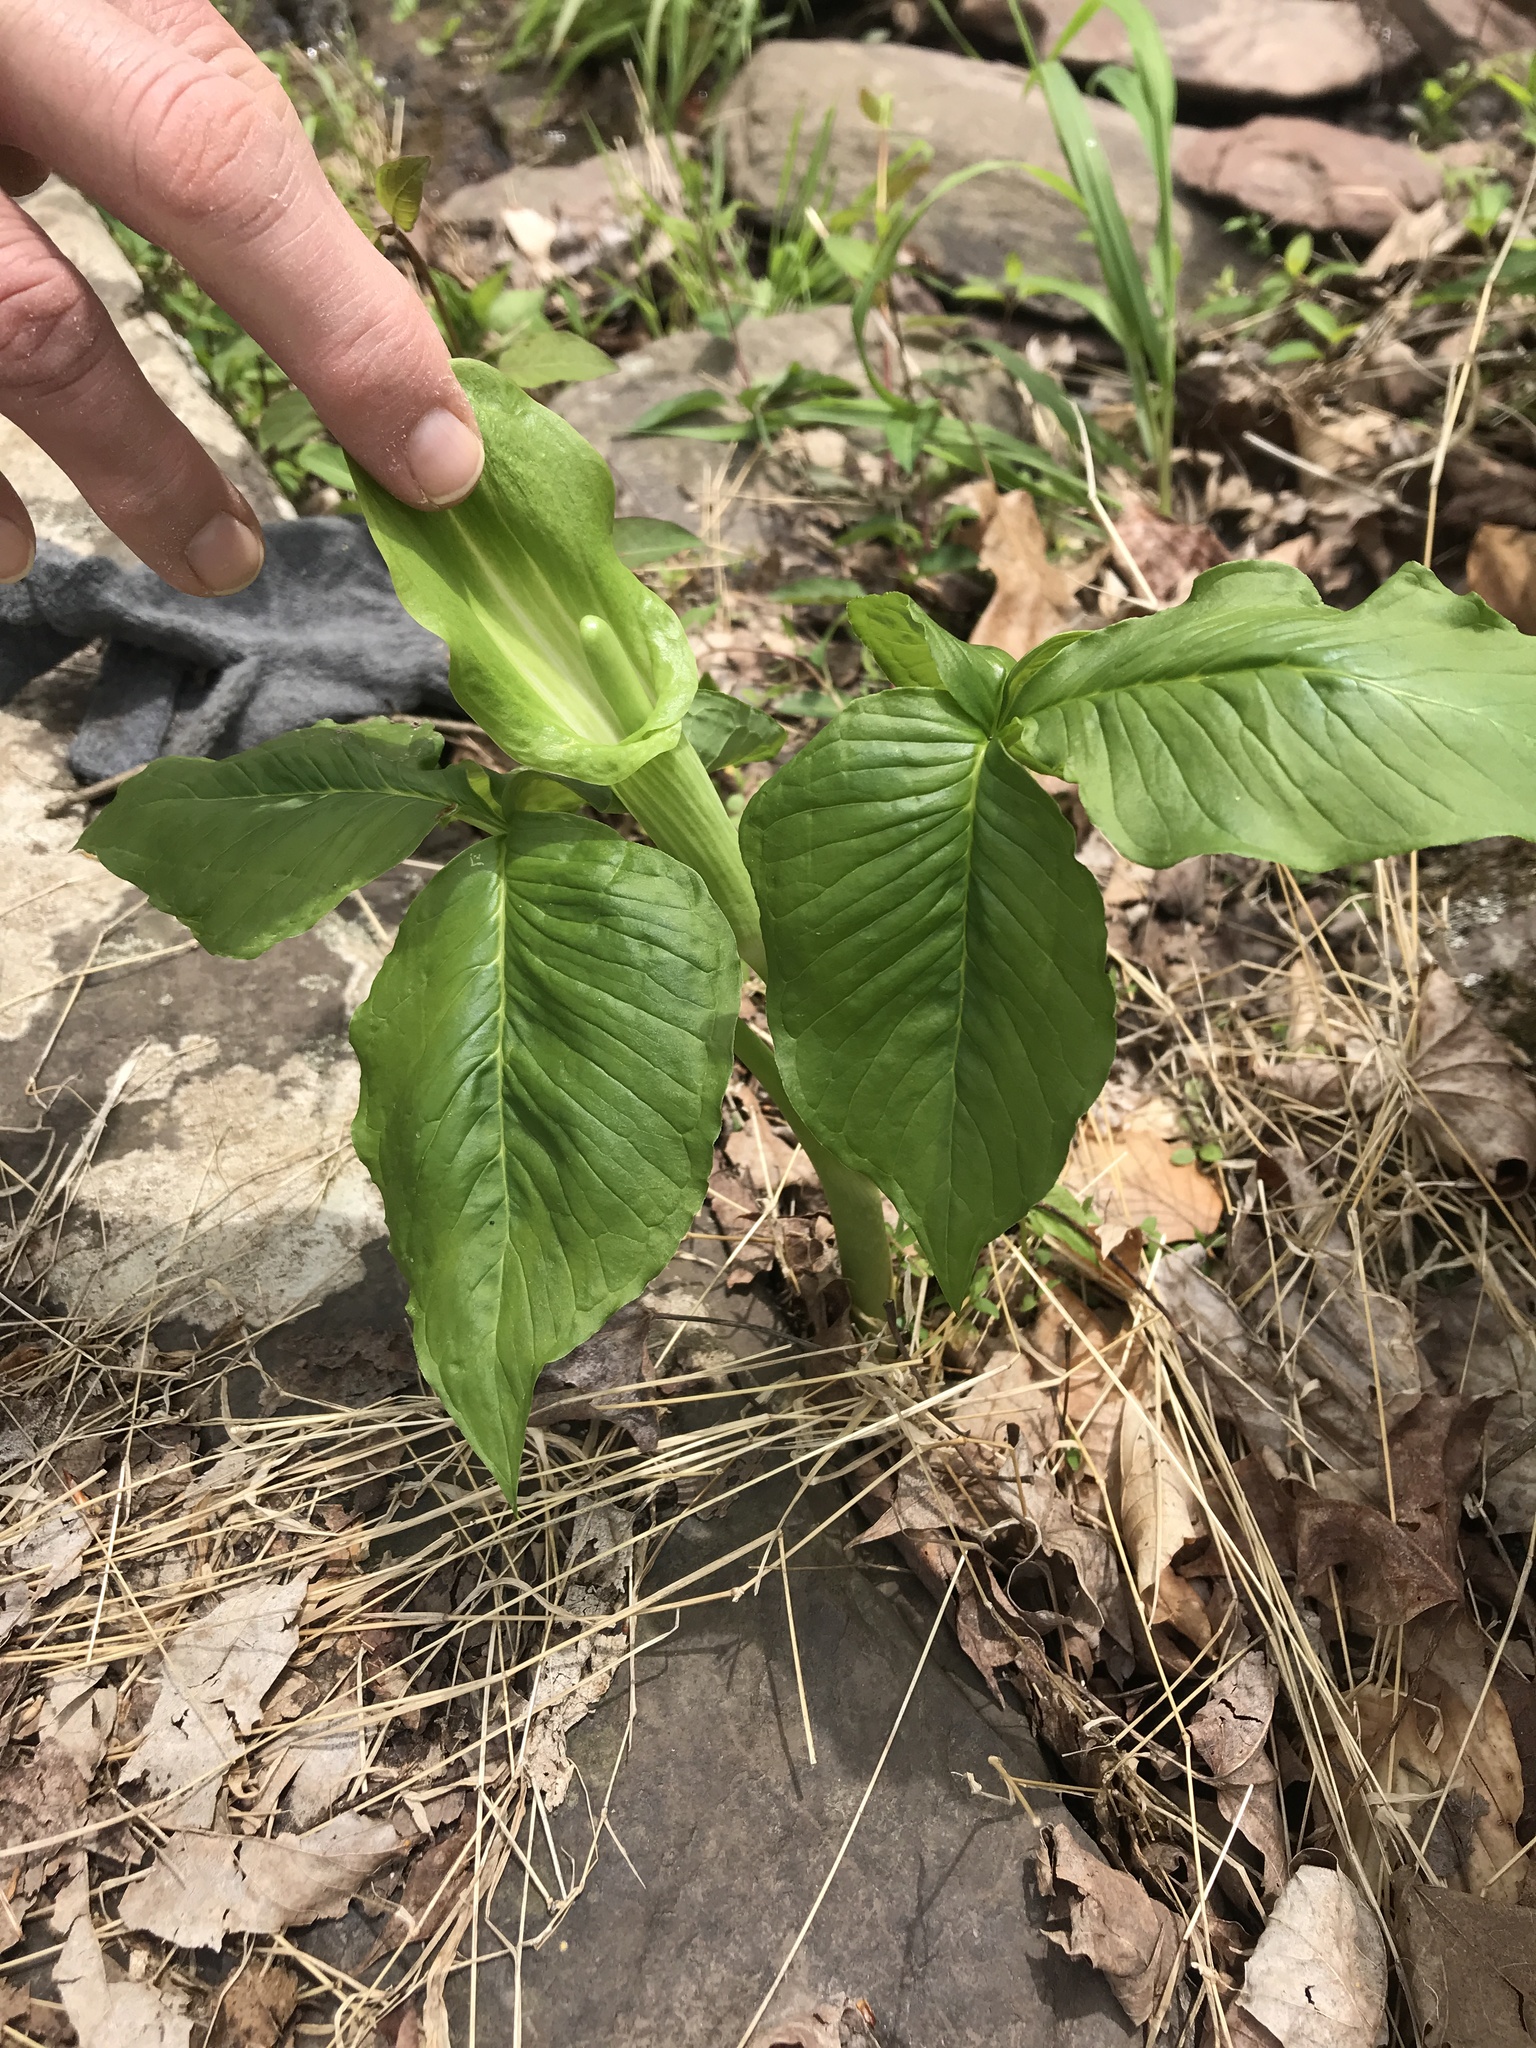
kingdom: Plantae
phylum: Tracheophyta
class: Liliopsida
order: Alismatales
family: Araceae
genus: Arisaema
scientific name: Arisaema triphyllum
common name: Jack-in-the-pulpit
